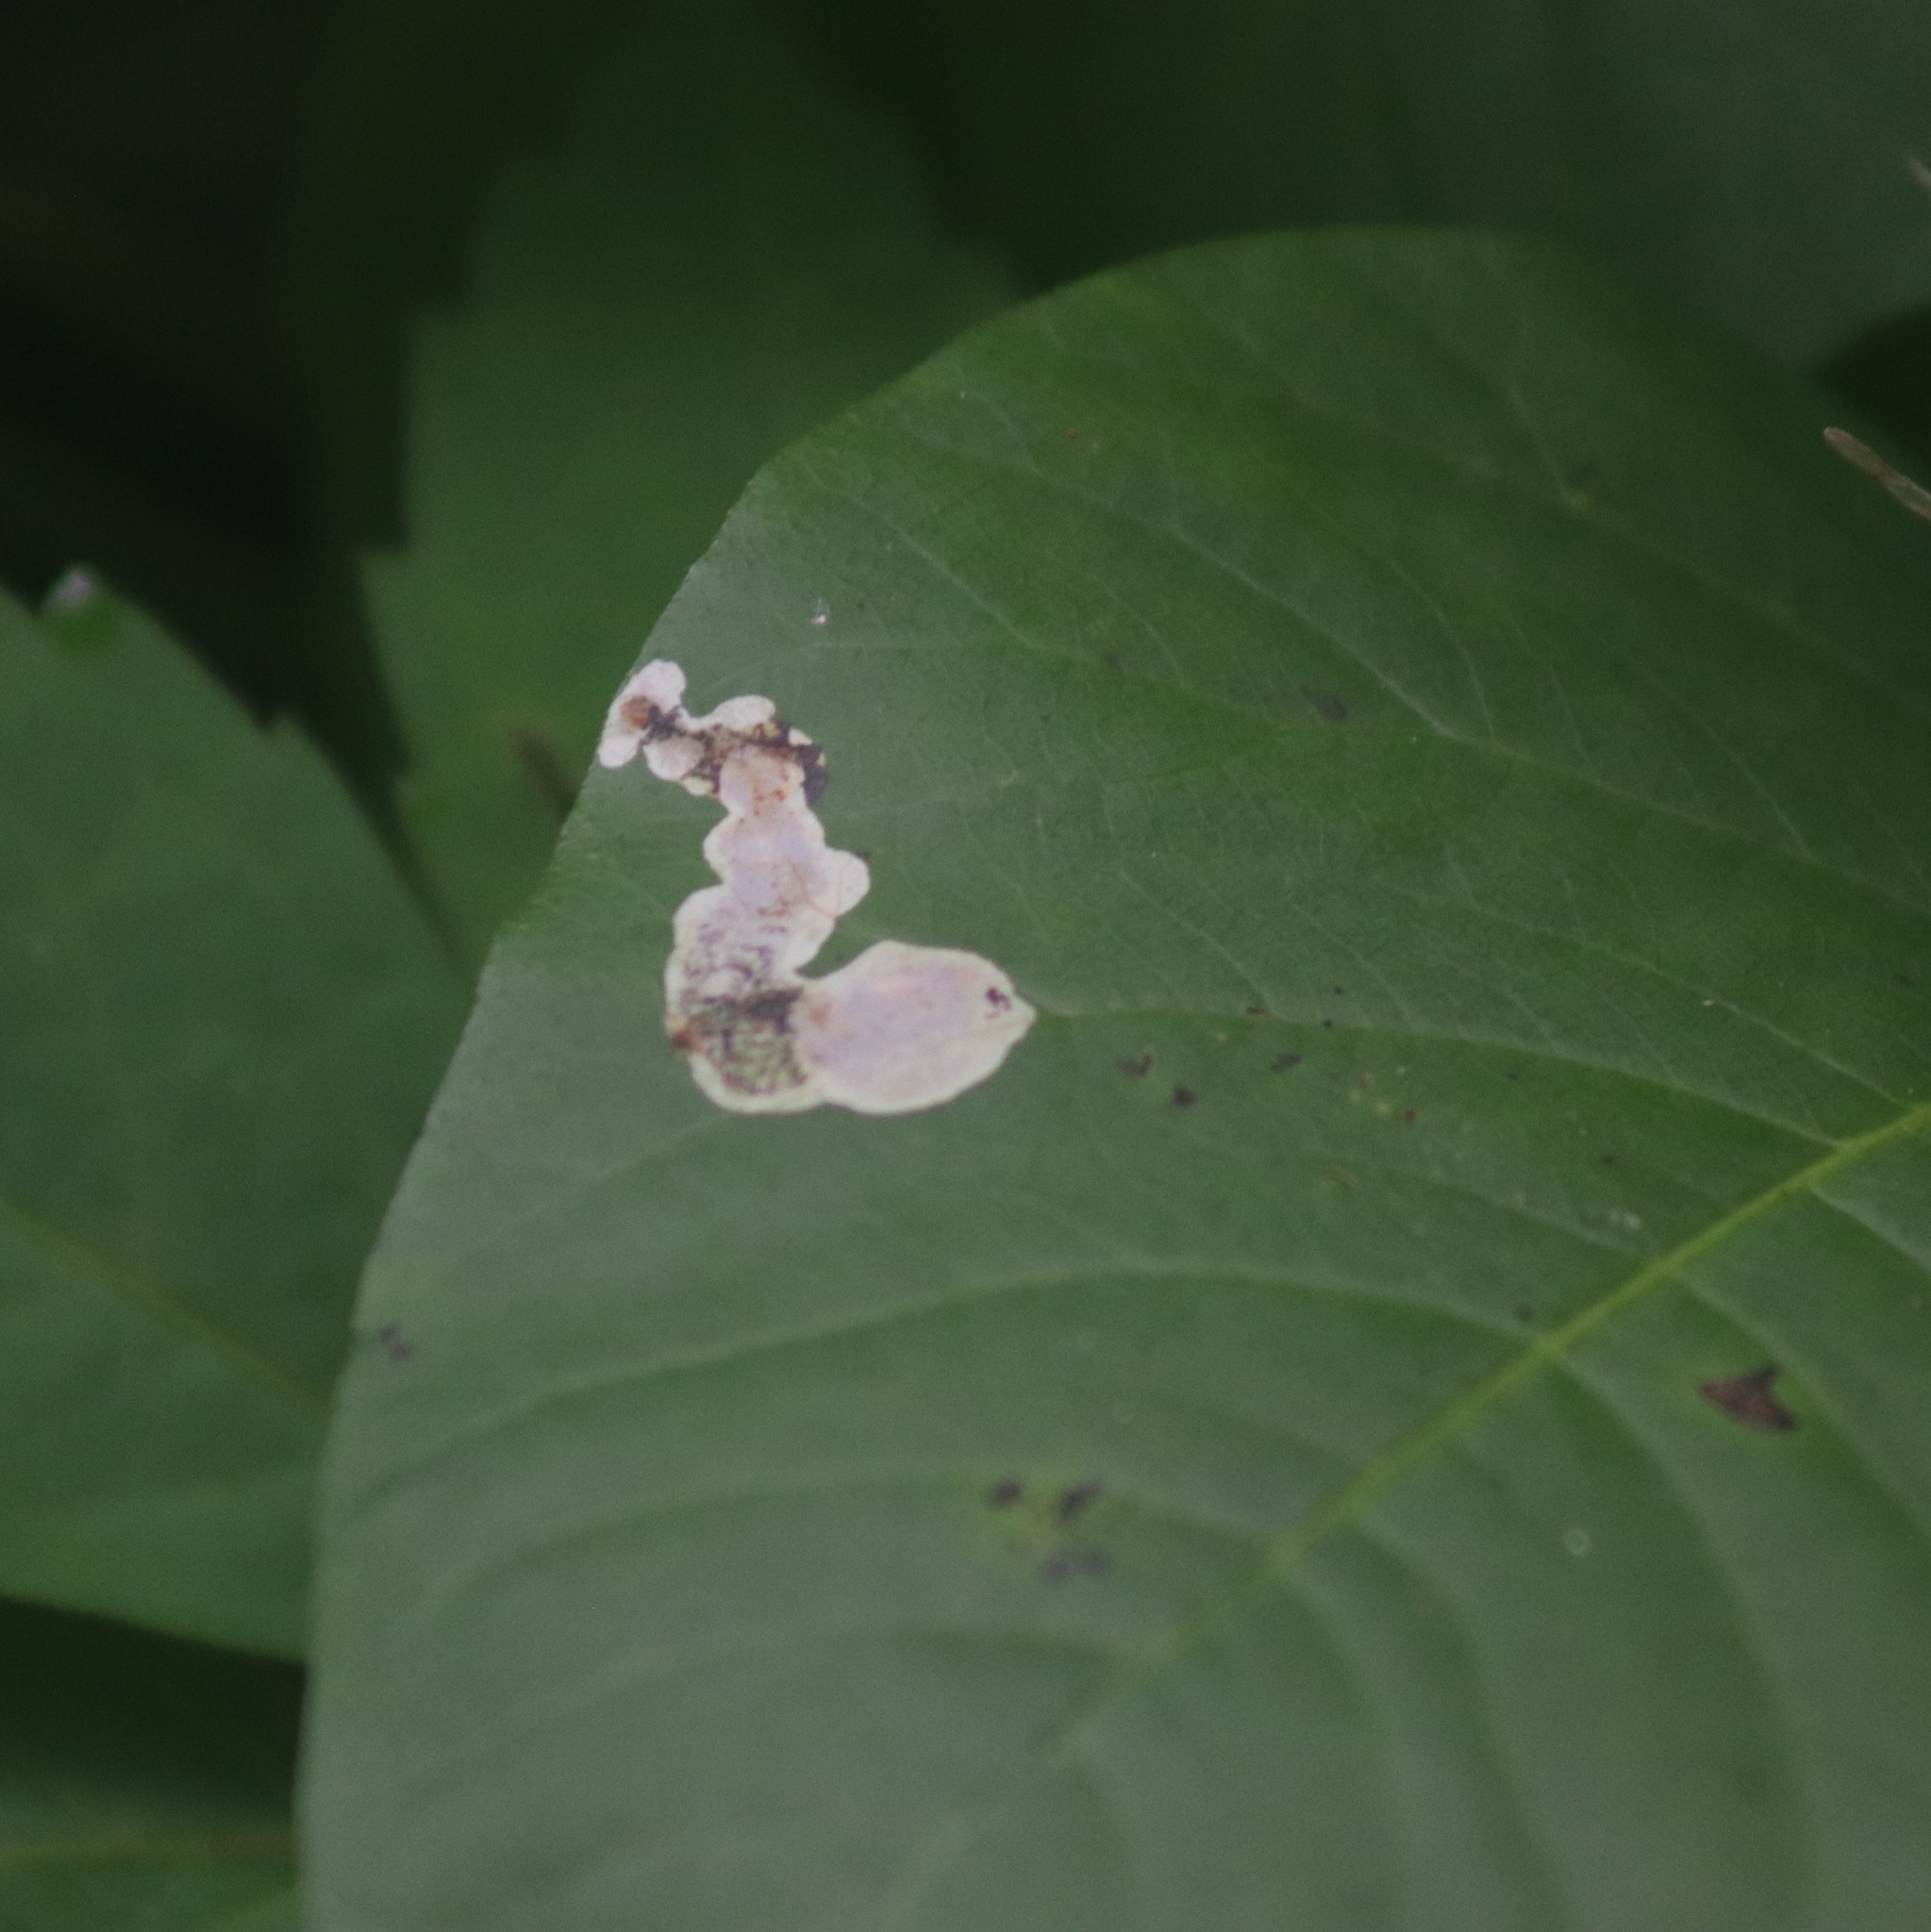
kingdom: Animalia
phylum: Arthropoda
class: Insecta
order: Lepidoptera
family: Gracillariidae
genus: Cameraria
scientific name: Cameraria guttifinitella
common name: Poison ivy leaf-miner moth
